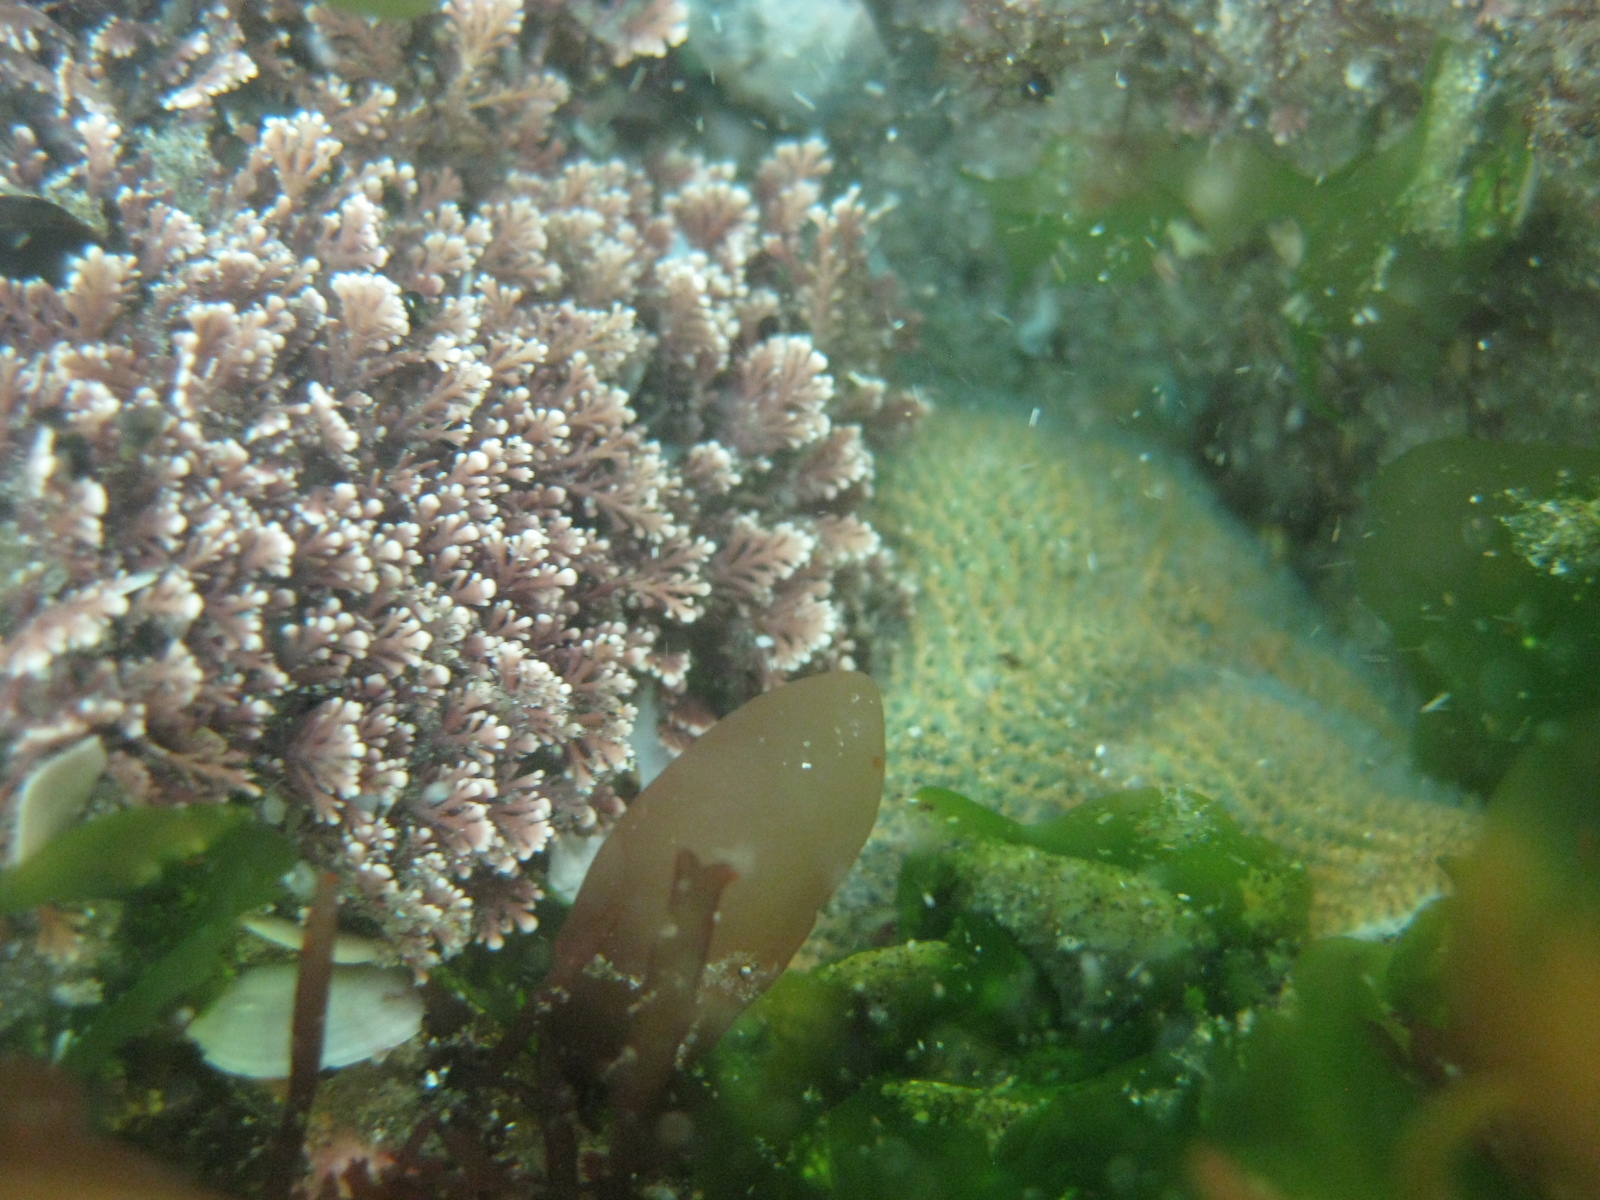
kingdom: Plantae
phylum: Rhodophyta
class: Florideophyceae
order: Corallinales
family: Corallinaceae
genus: Corallina
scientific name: Corallina officinalis
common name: Coral weed
